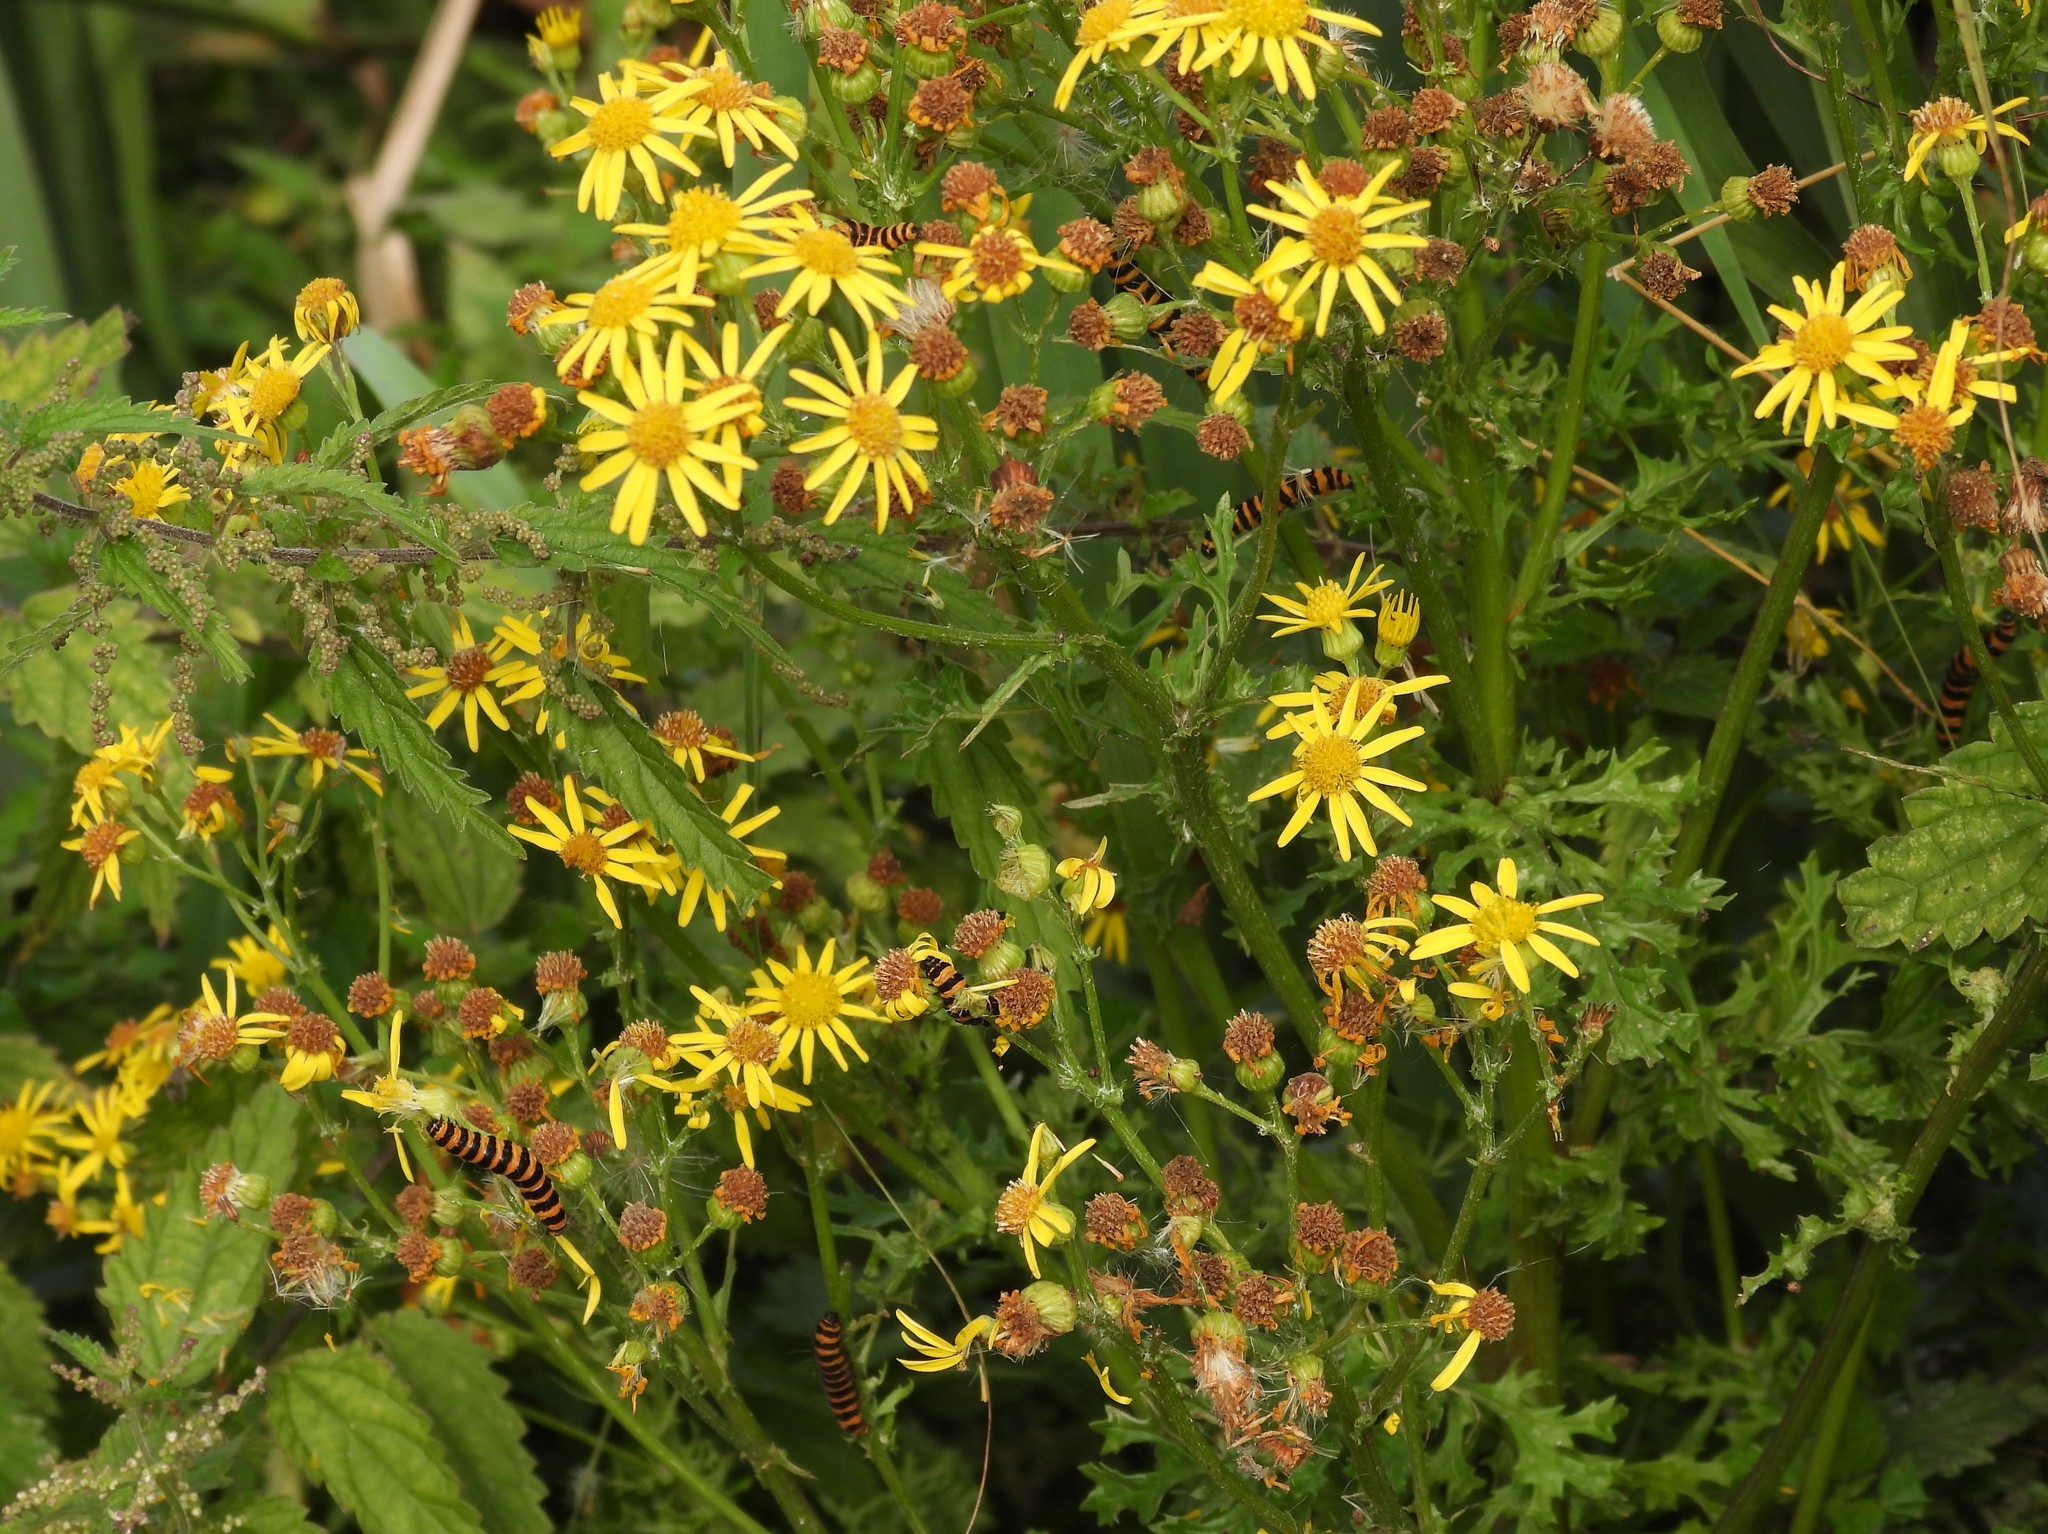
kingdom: Animalia
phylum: Arthropoda
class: Insecta
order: Lepidoptera
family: Erebidae
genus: Tyria
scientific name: Tyria jacobaeae
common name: Cinnabar
